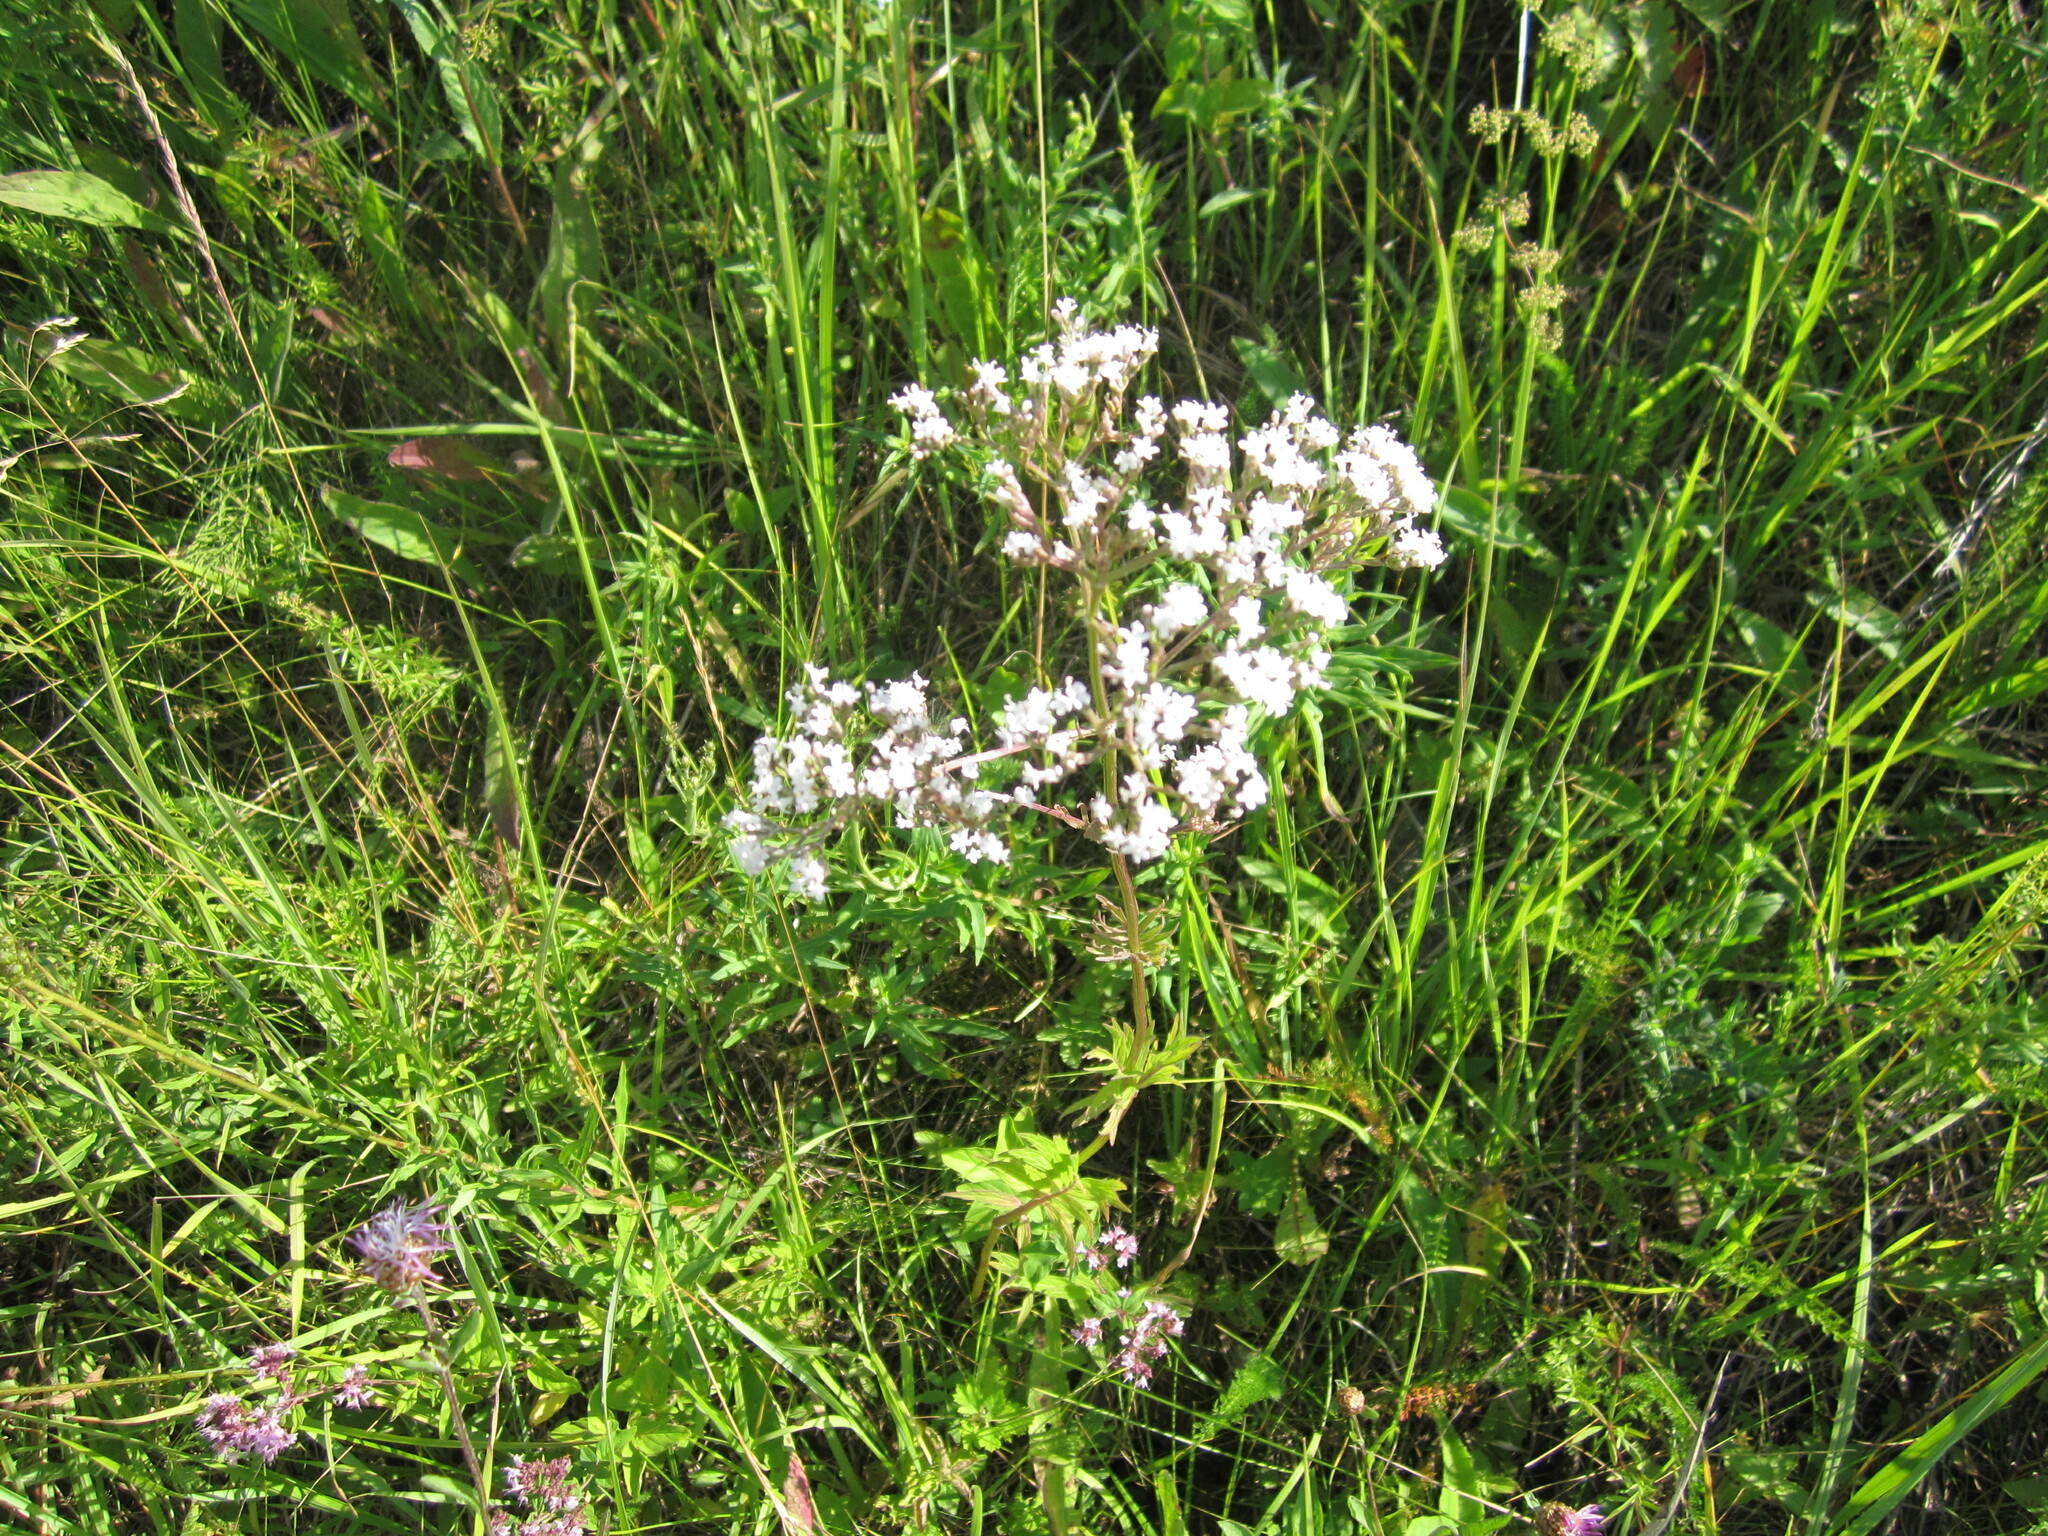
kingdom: Plantae
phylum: Tracheophyta
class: Magnoliopsida
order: Dipsacales
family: Caprifoliaceae
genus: Valeriana
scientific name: Valeriana officinalis
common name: Common valerian
